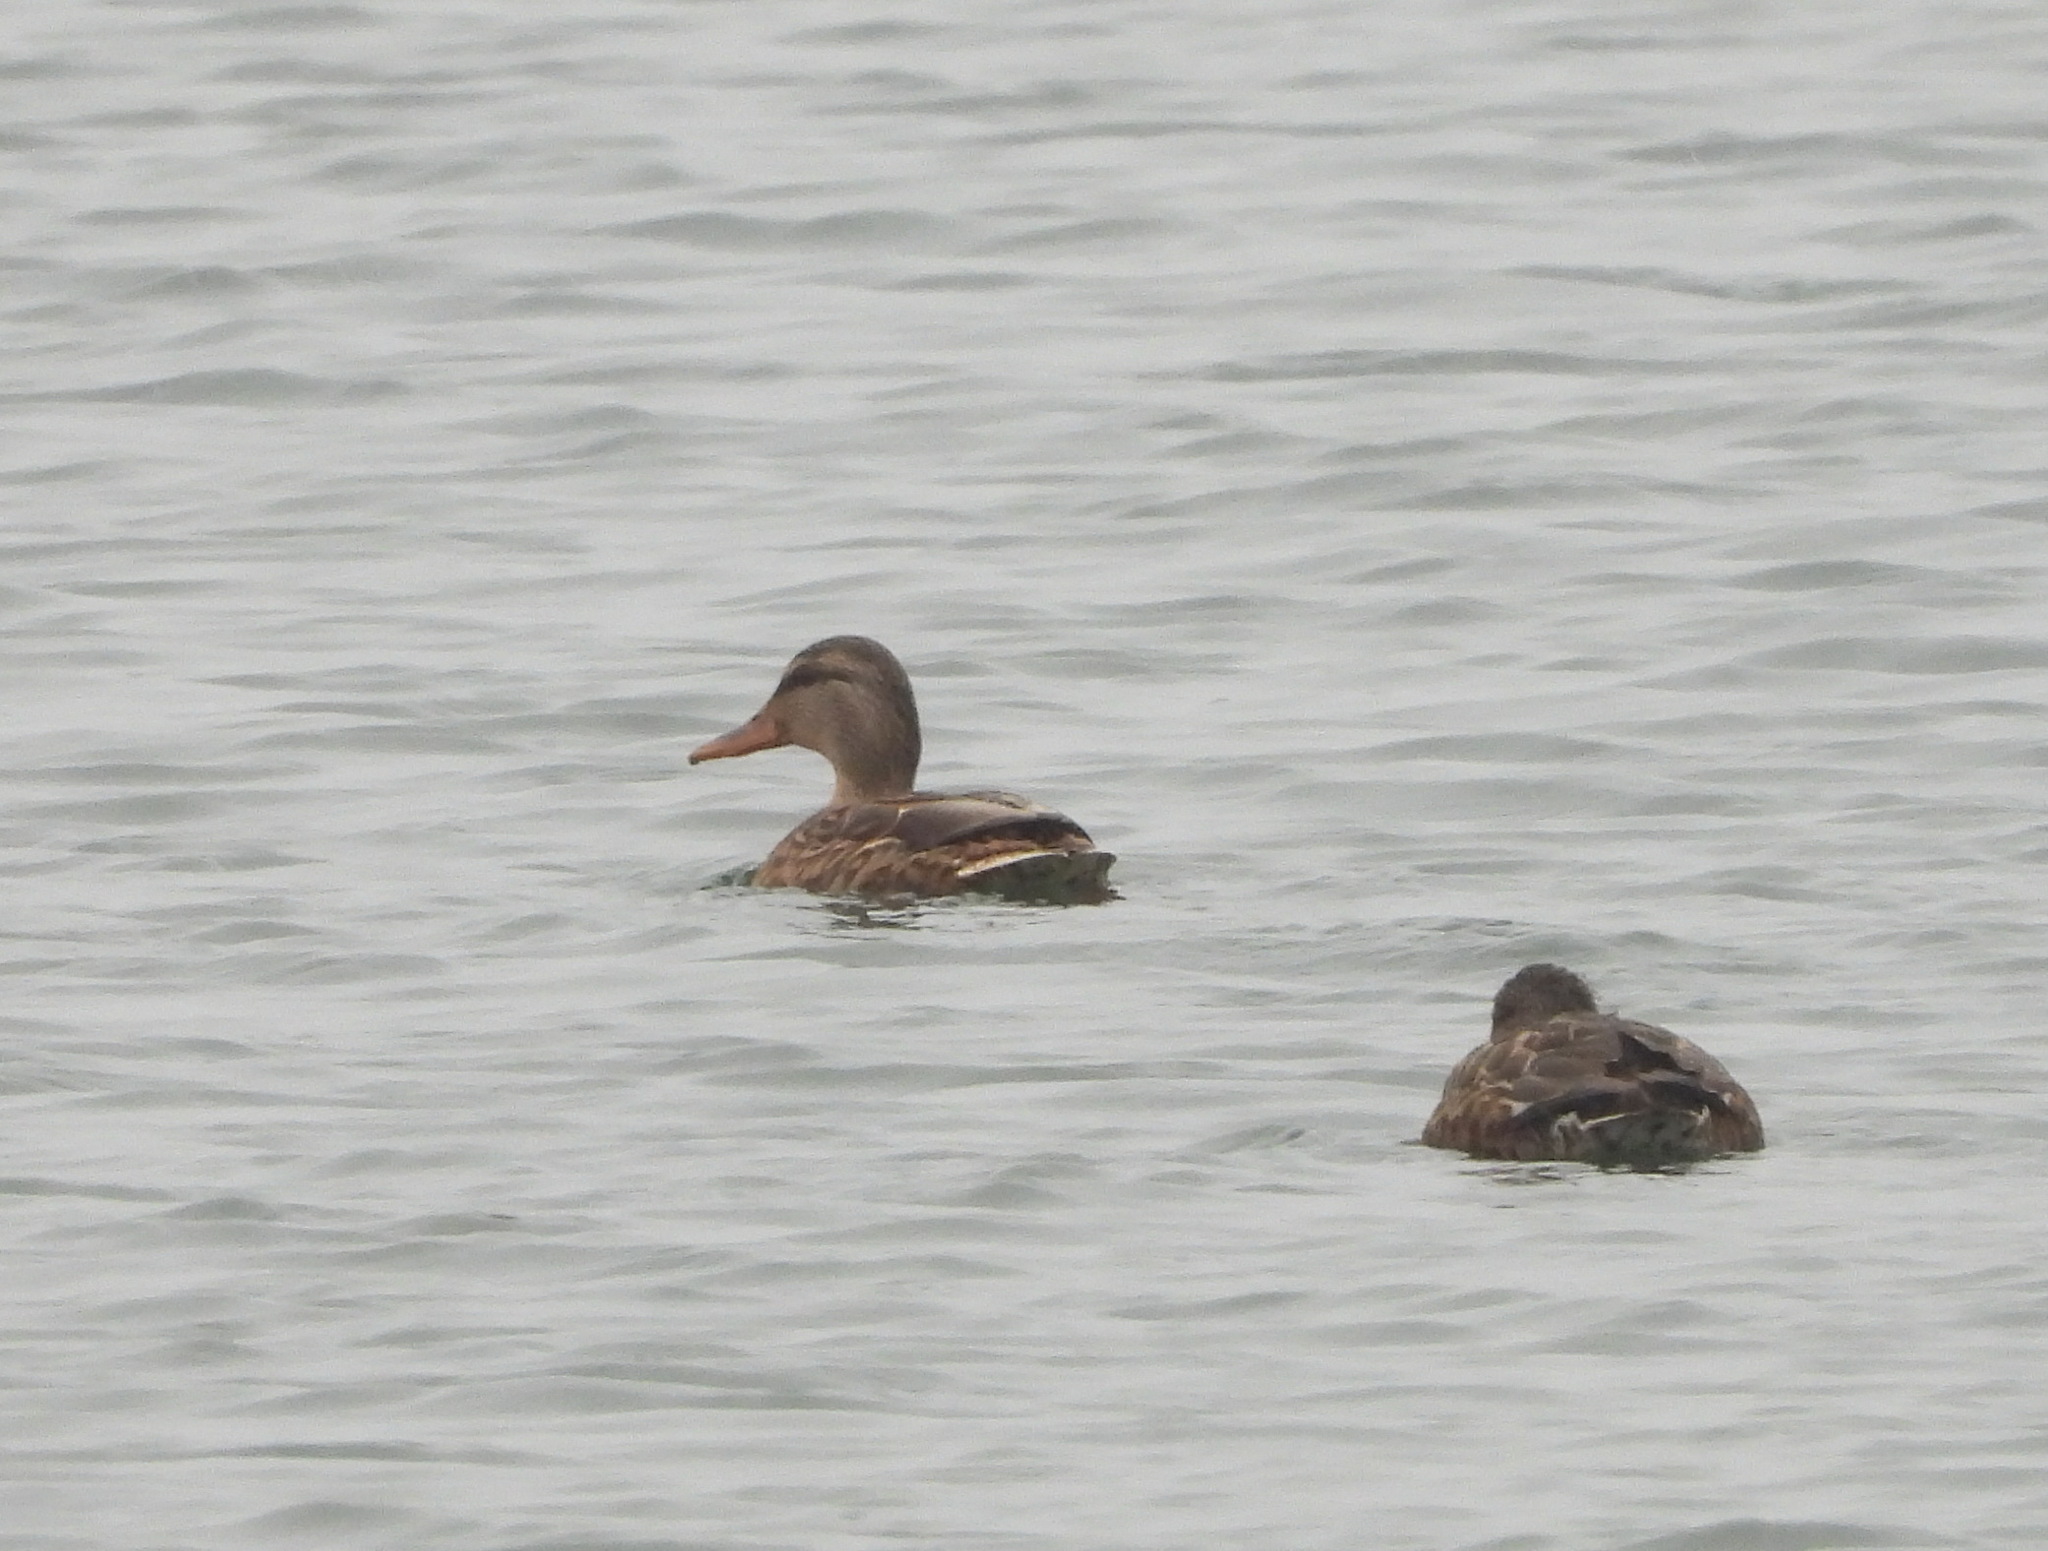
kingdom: Animalia
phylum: Chordata
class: Aves
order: Anseriformes
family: Anatidae
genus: Anas
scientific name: Anas platyrhynchos
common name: Mallard
